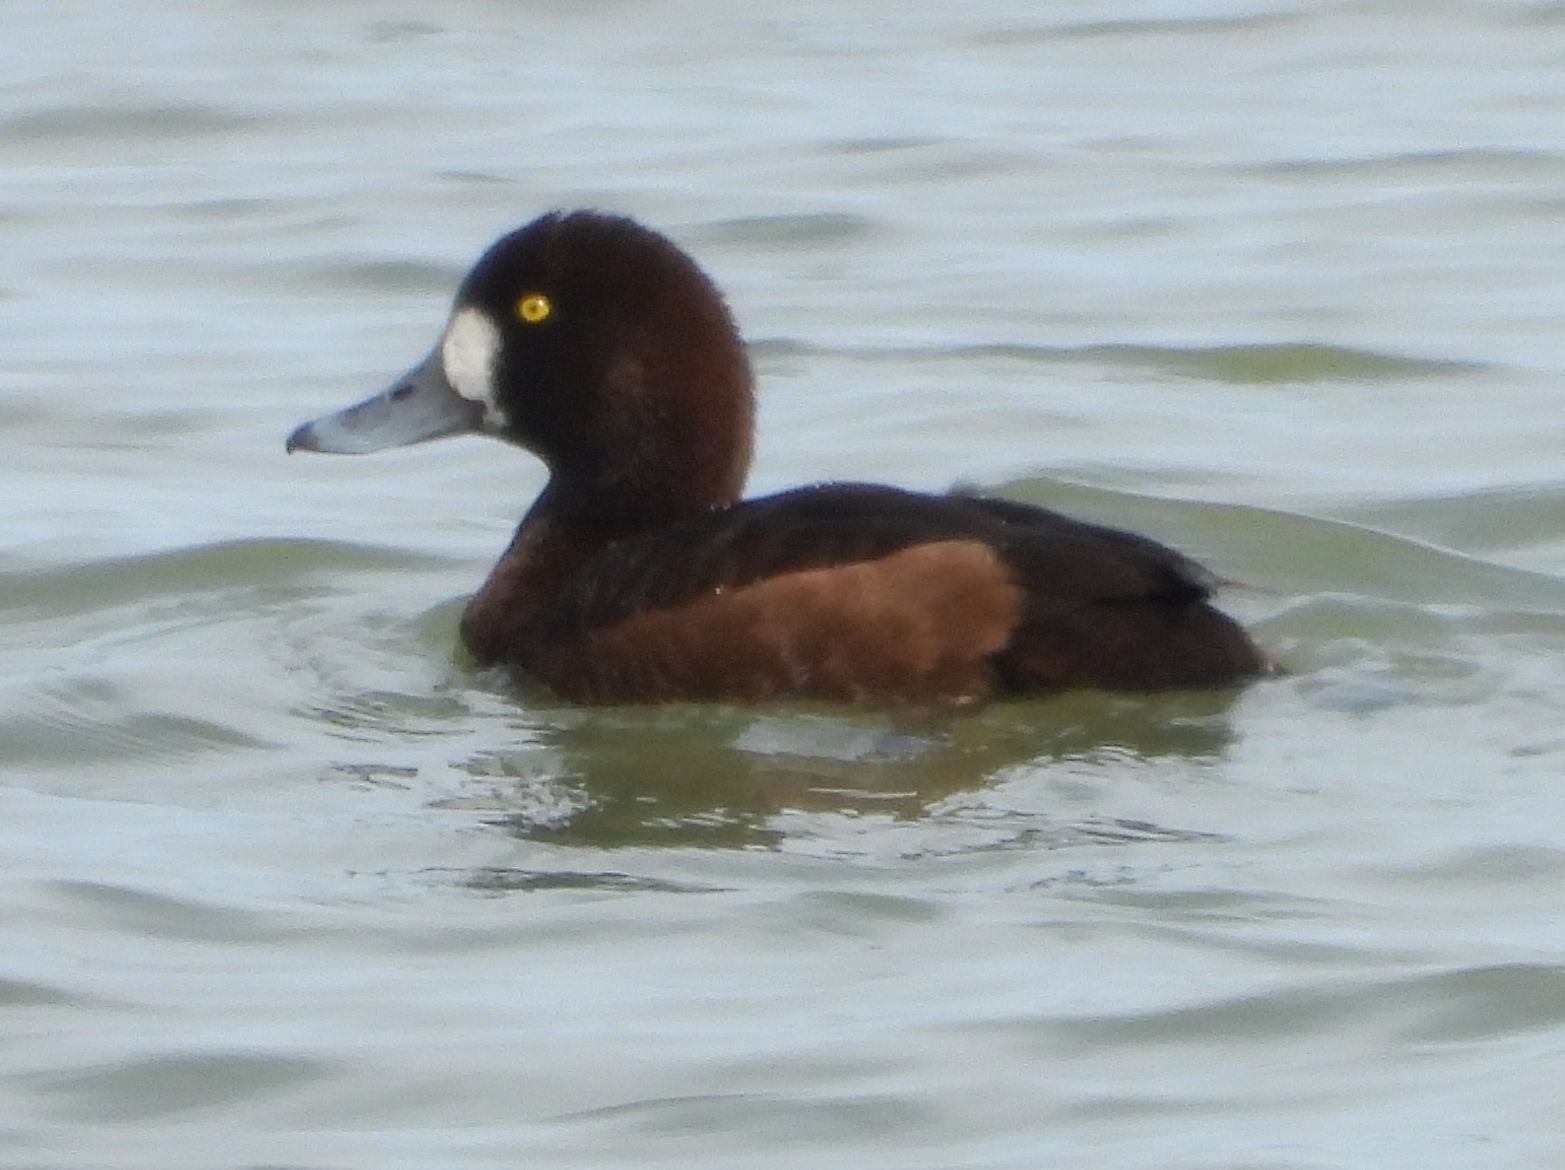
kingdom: Animalia
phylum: Chordata
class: Aves
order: Anseriformes
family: Anatidae
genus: Aythya
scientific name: Aythya marila
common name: Greater scaup
